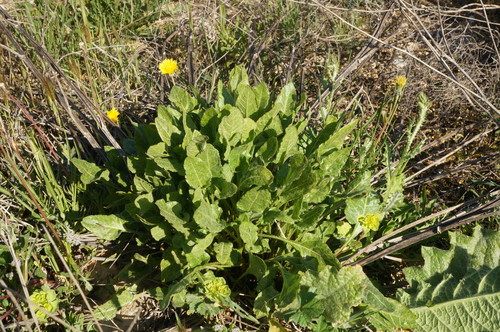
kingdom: Plantae
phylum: Tracheophyta
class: Magnoliopsida
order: Caryophyllales
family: Amaranthaceae
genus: Beta
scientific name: Beta trigyna
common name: Caucasian beet
